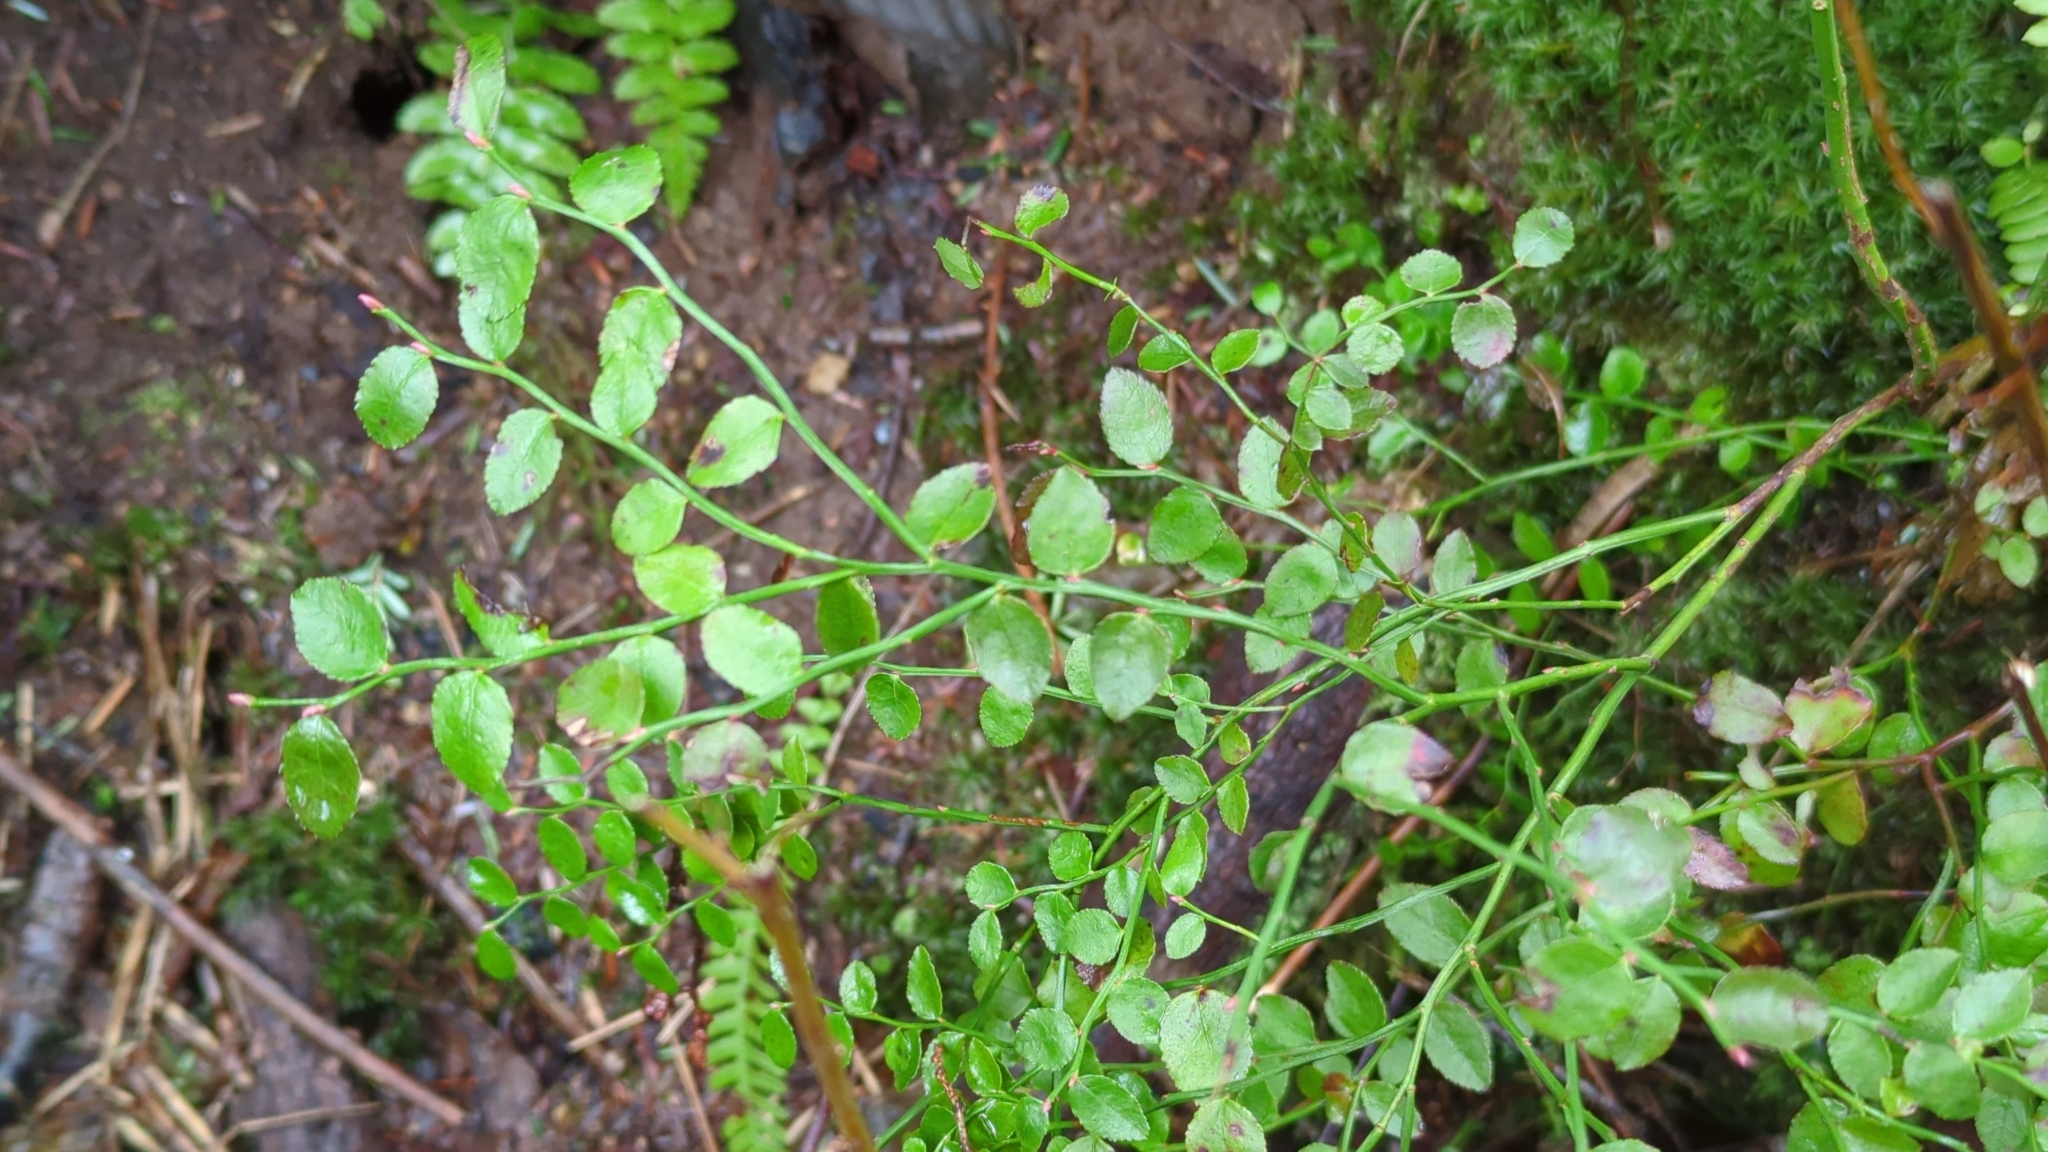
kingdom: Plantae
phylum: Tracheophyta
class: Magnoliopsida
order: Ericales
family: Ericaceae
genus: Vaccinium
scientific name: Vaccinium parvifolium
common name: Red-huckleberry
